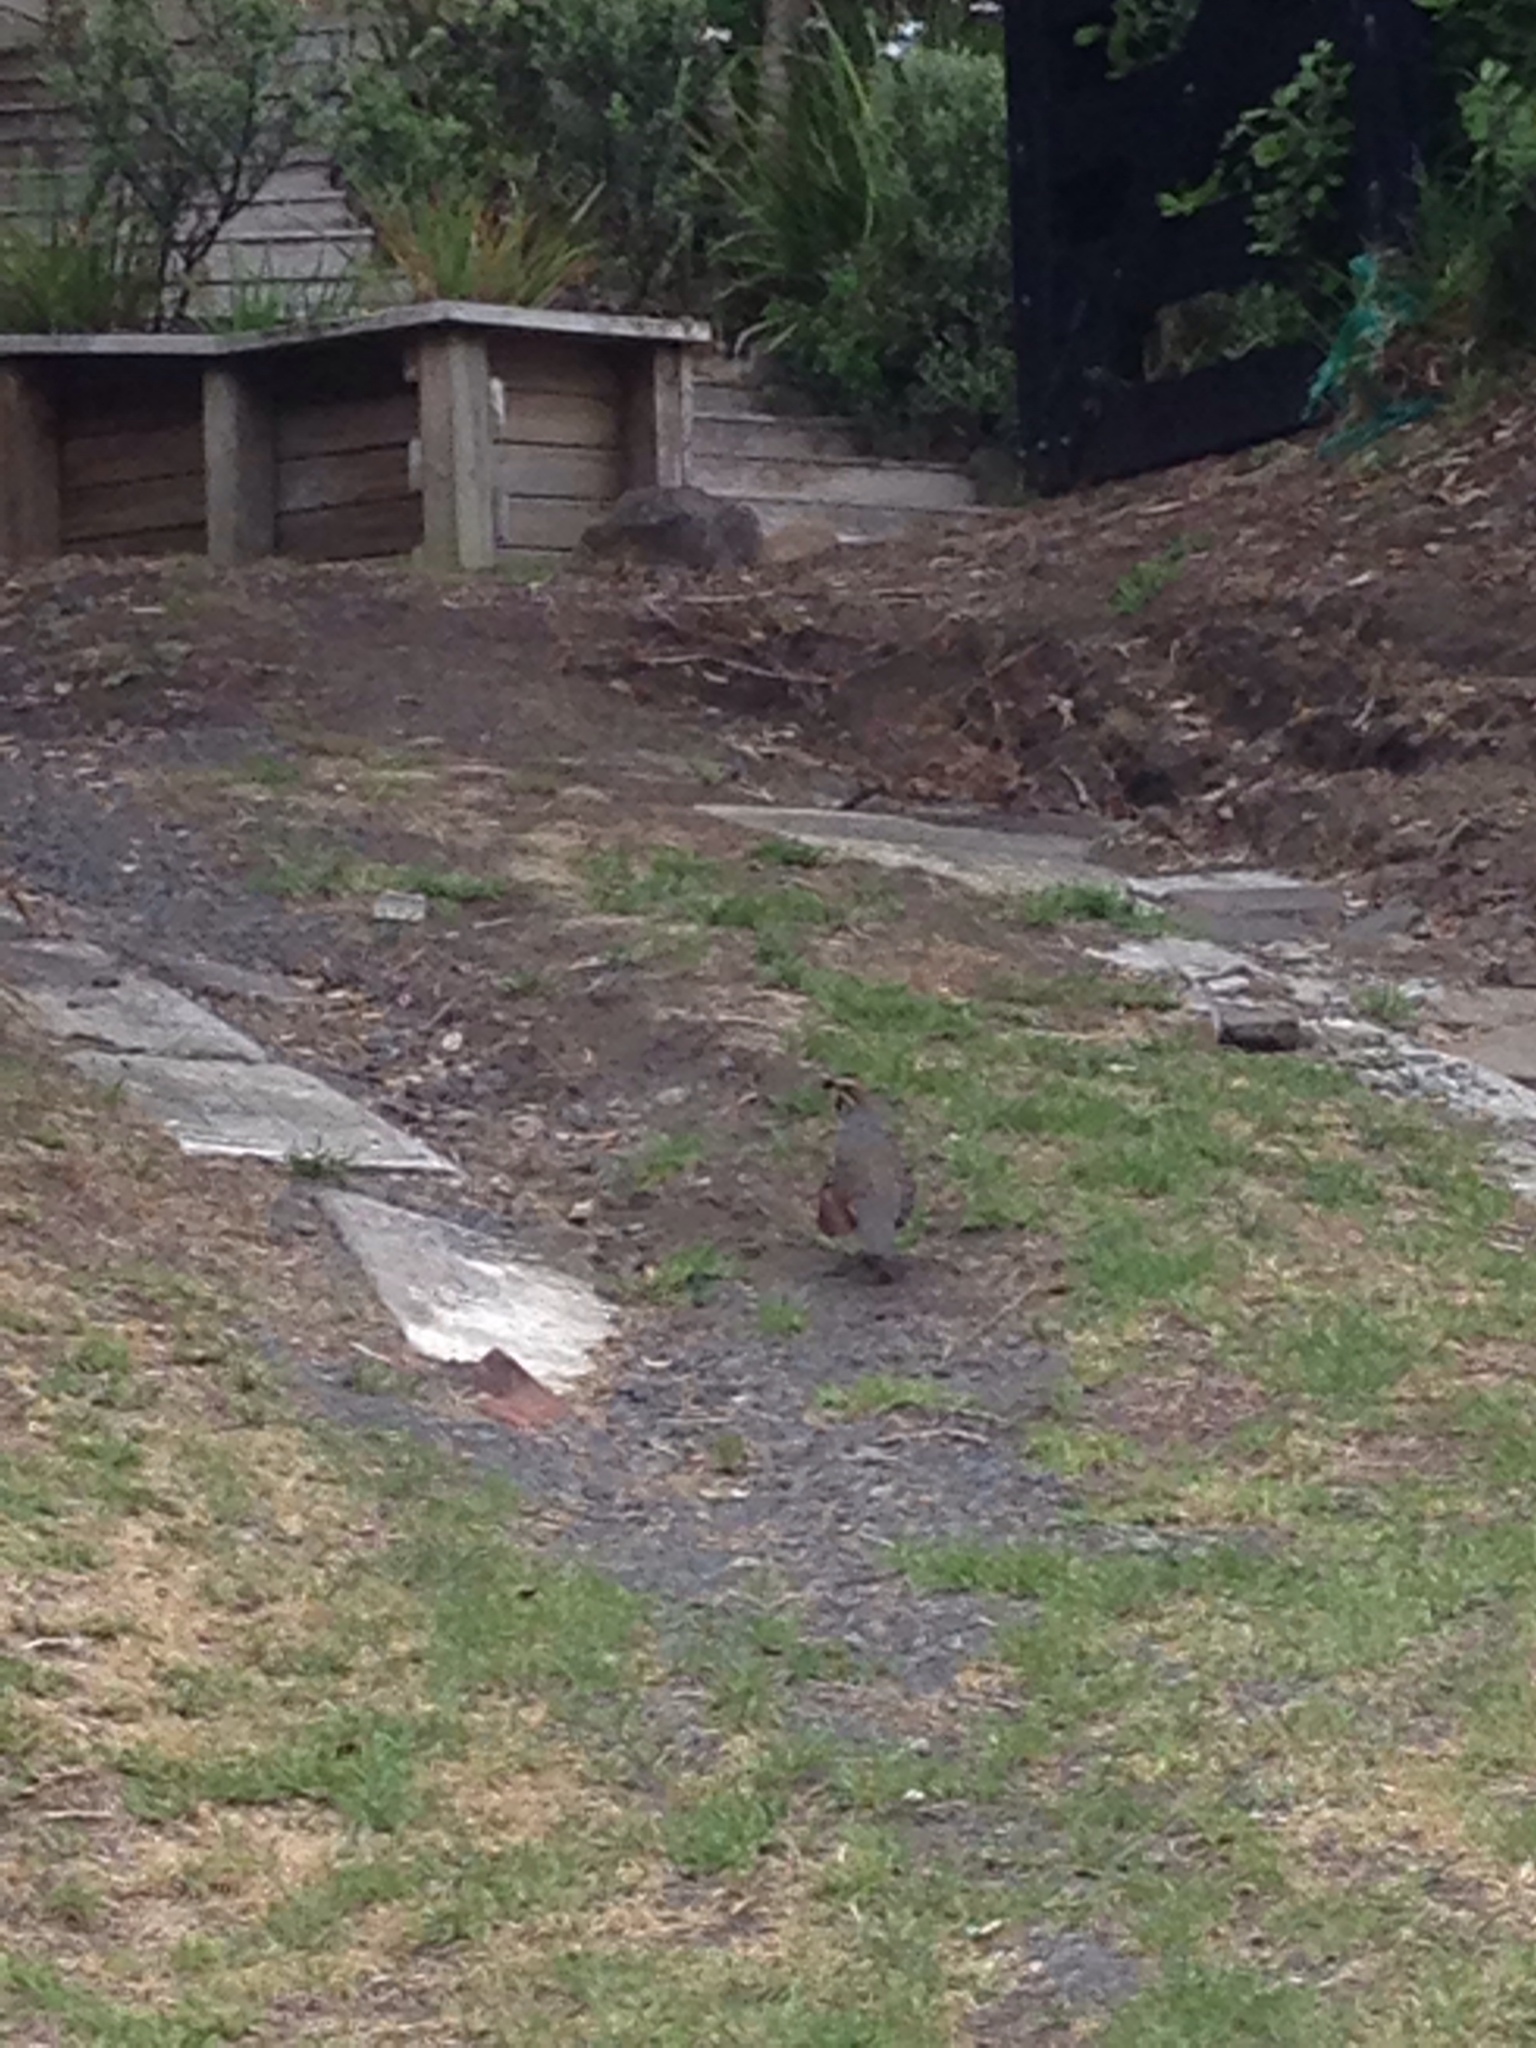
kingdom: Animalia
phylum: Chordata
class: Aves
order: Galliformes
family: Odontophoridae
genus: Callipepla
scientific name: Callipepla californica
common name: California quail
